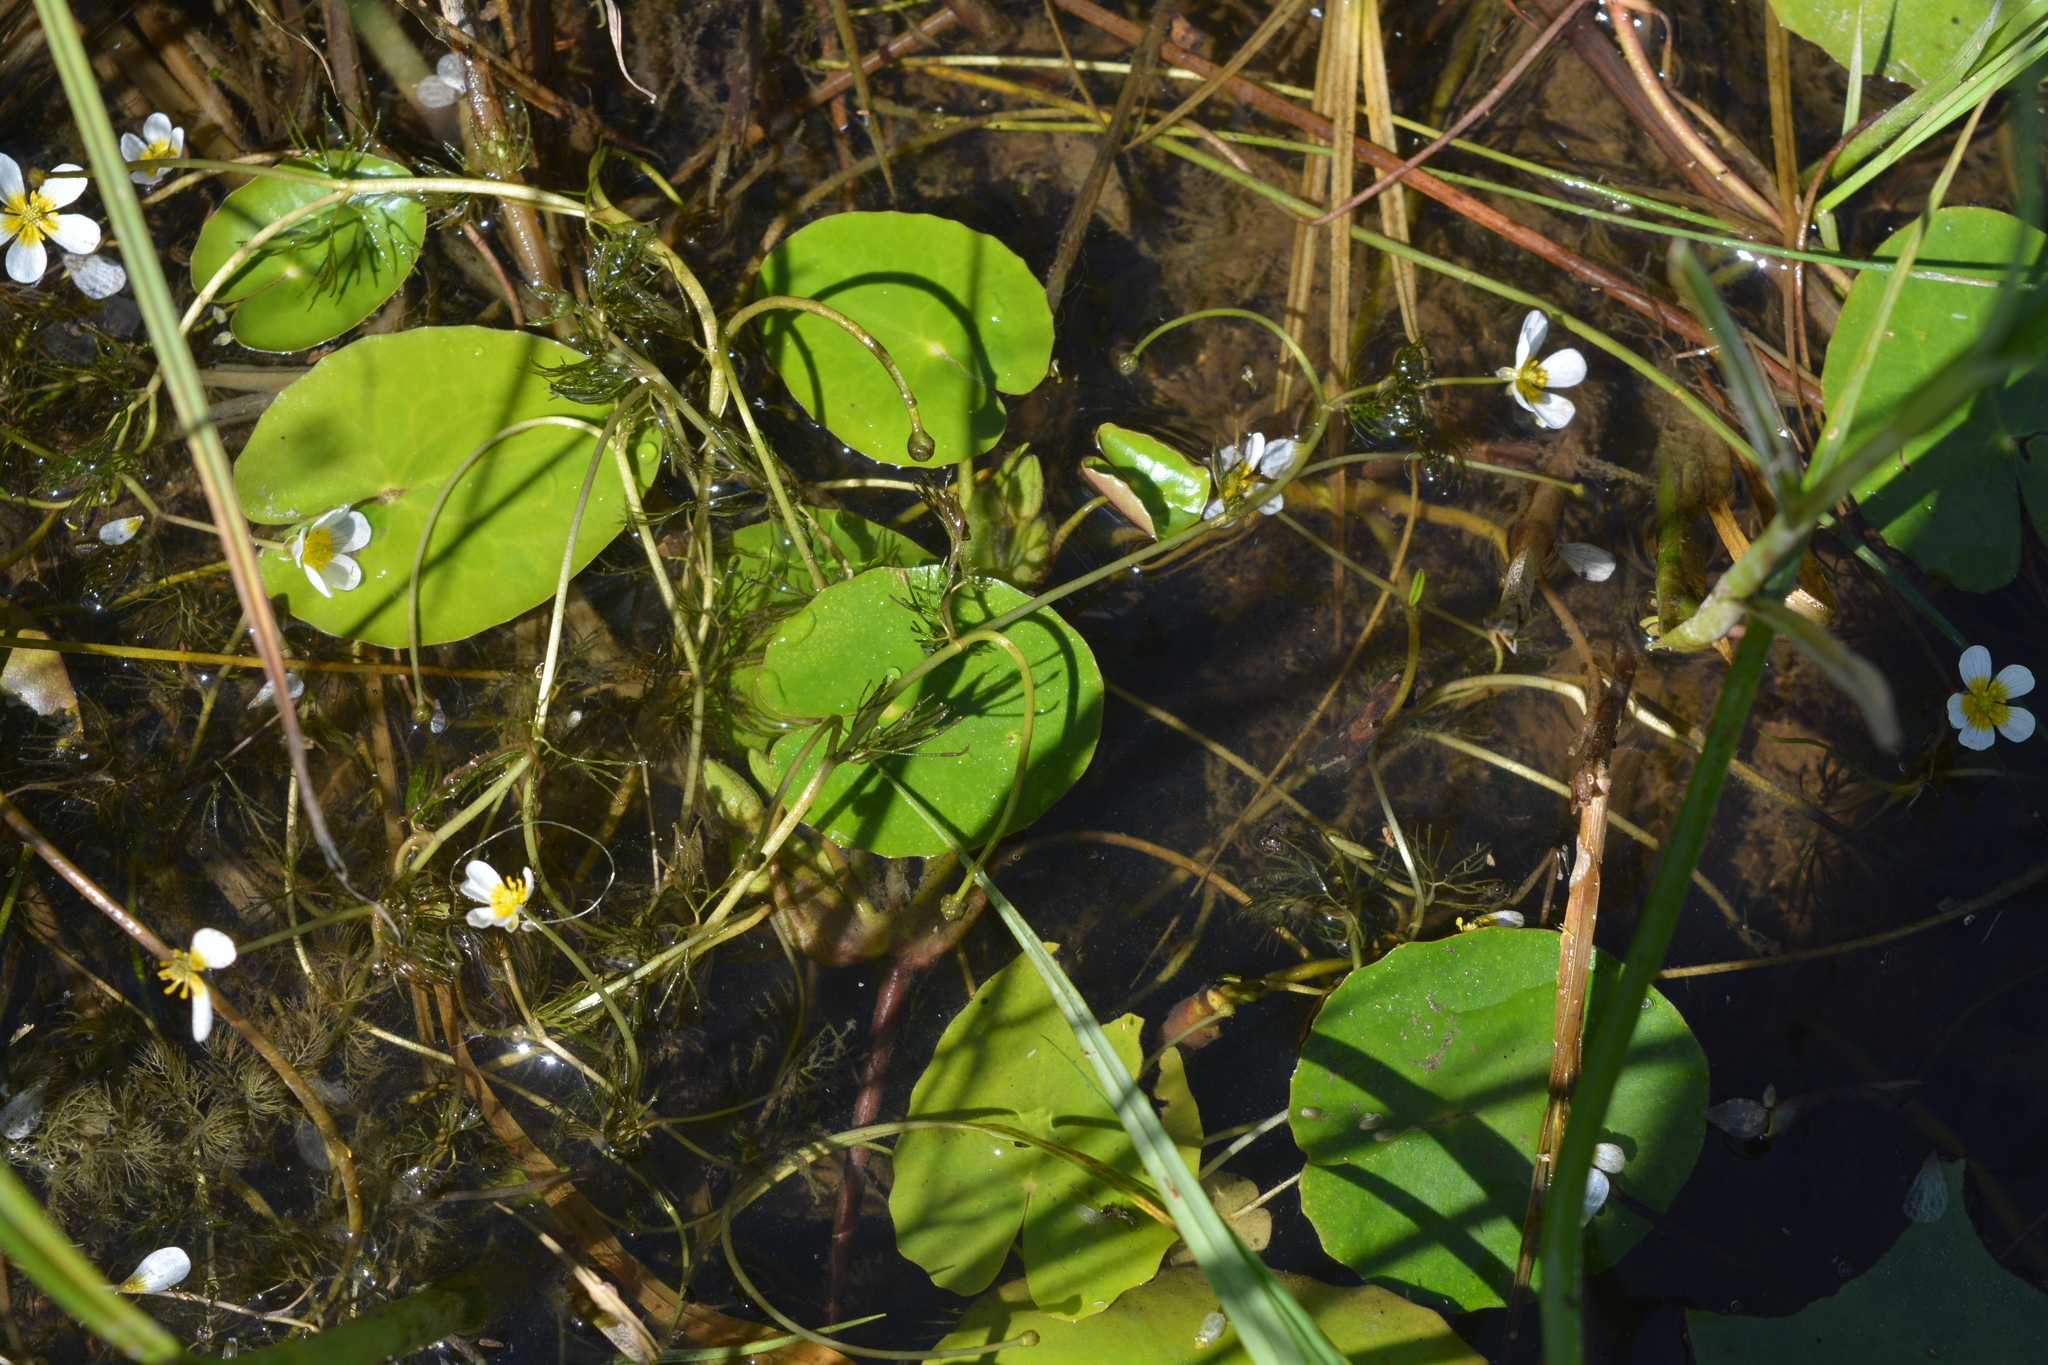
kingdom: Plantae
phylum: Tracheophyta
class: Magnoliopsida
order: Ranunculales
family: Ranunculaceae
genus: Caltha
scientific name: Caltha natans
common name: Floating marsh marigold
